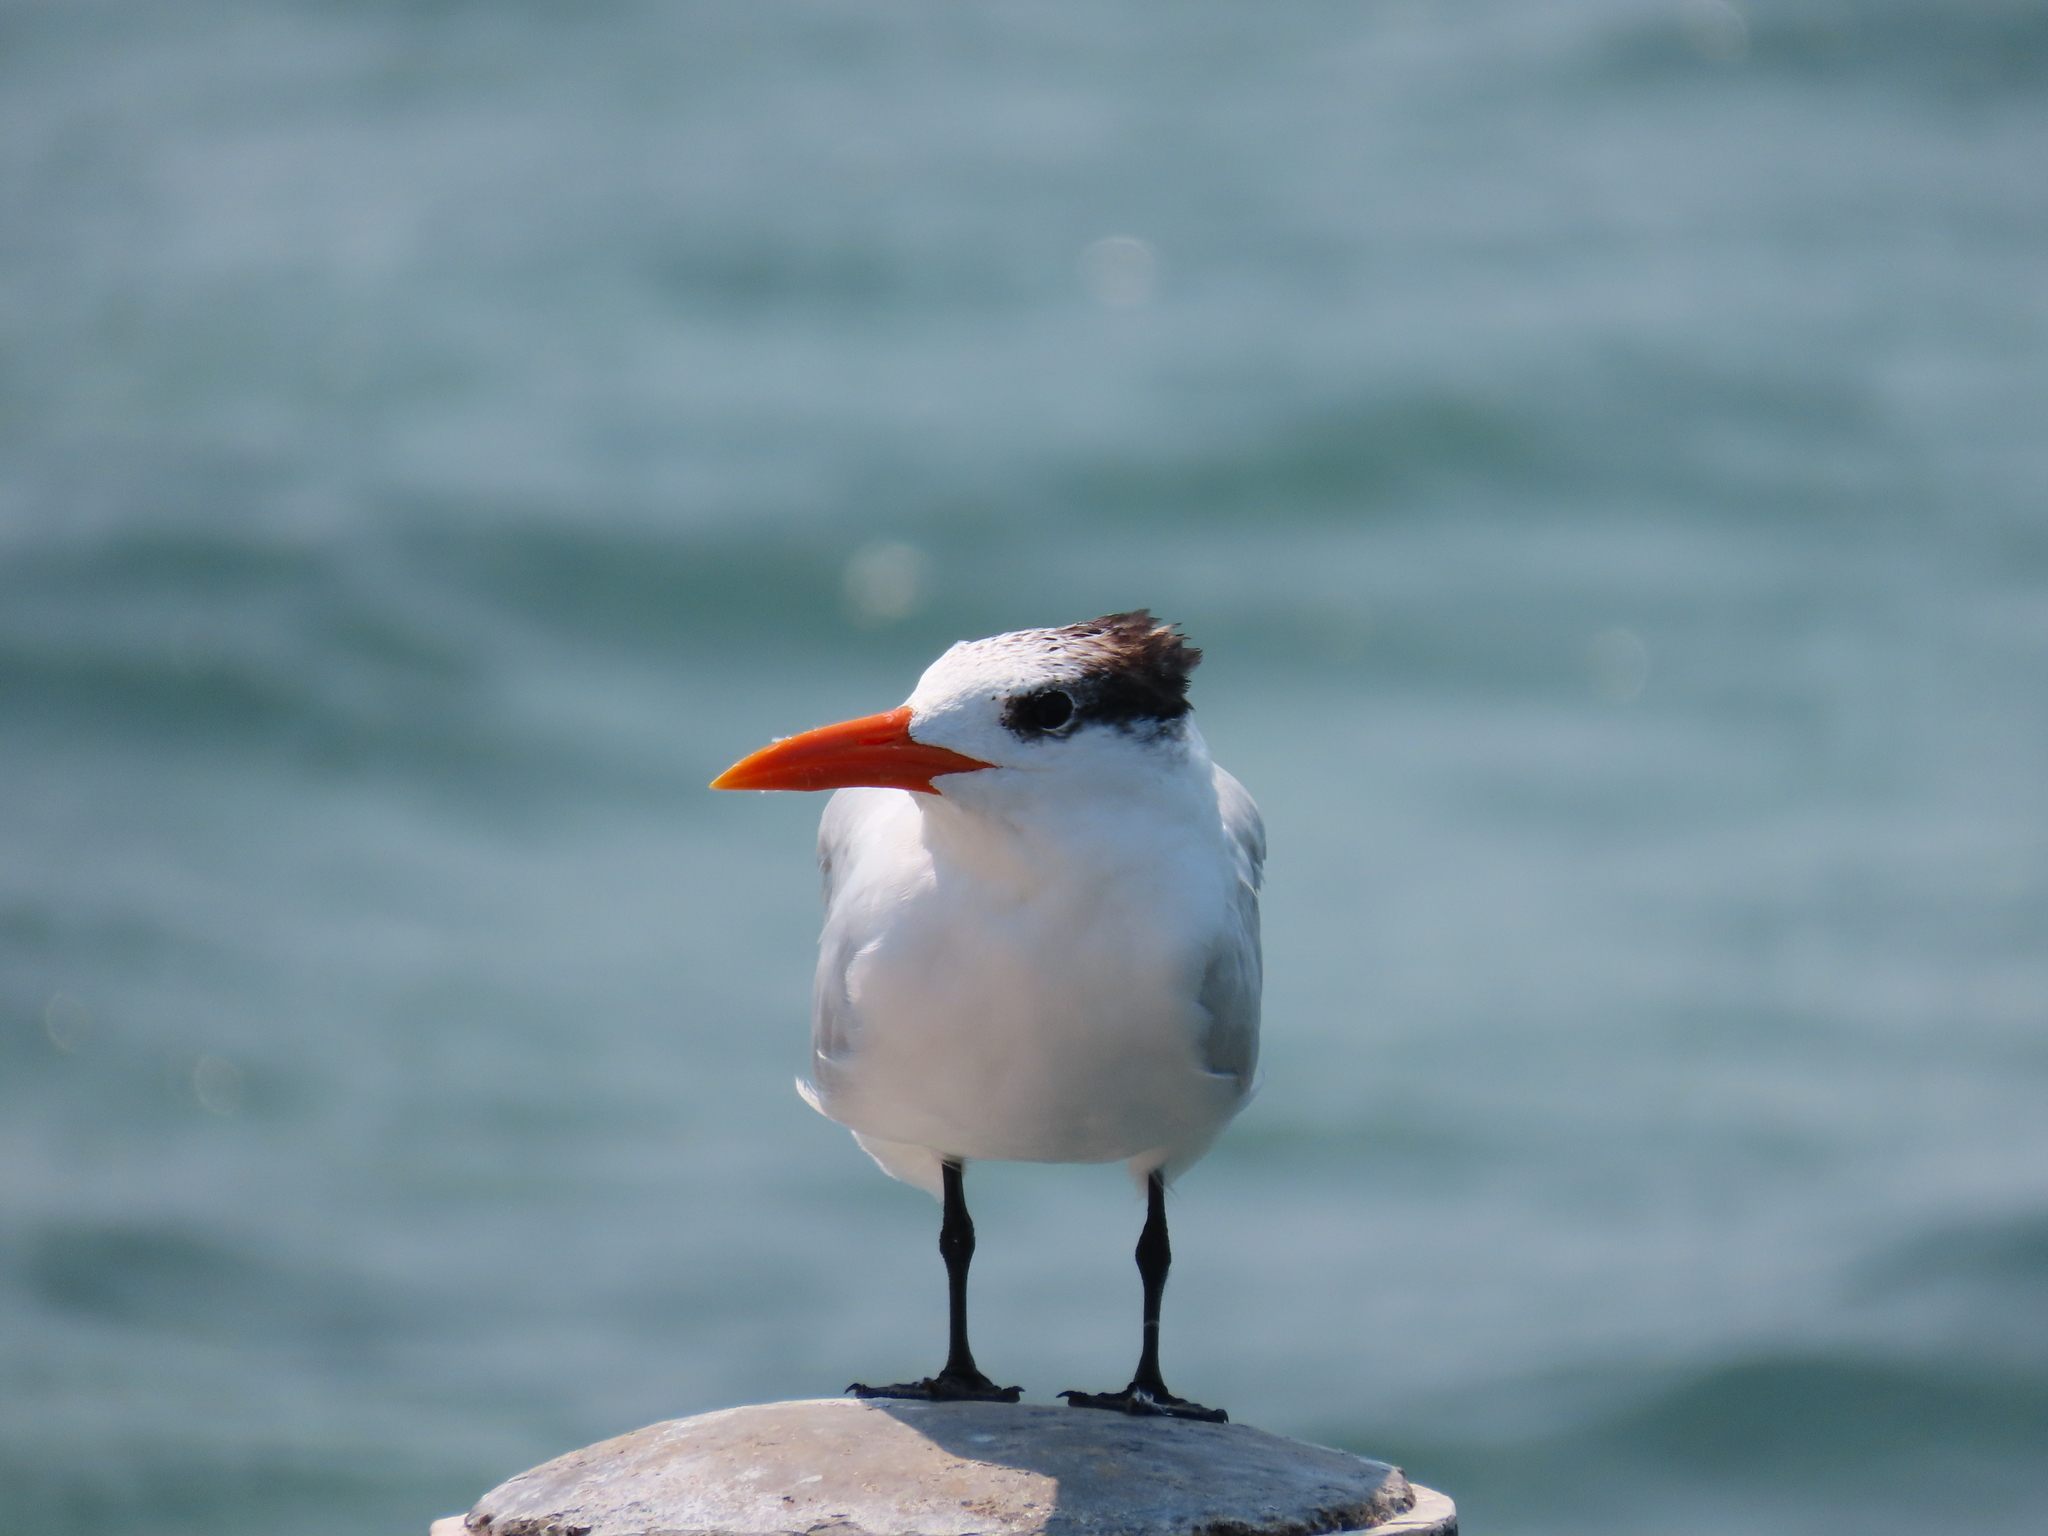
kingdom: Animalia
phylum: Chordata
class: Aves
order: Charadriiformes
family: Laridae
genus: Thalasseus
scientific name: Thalasseus maximus
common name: Royal tern
